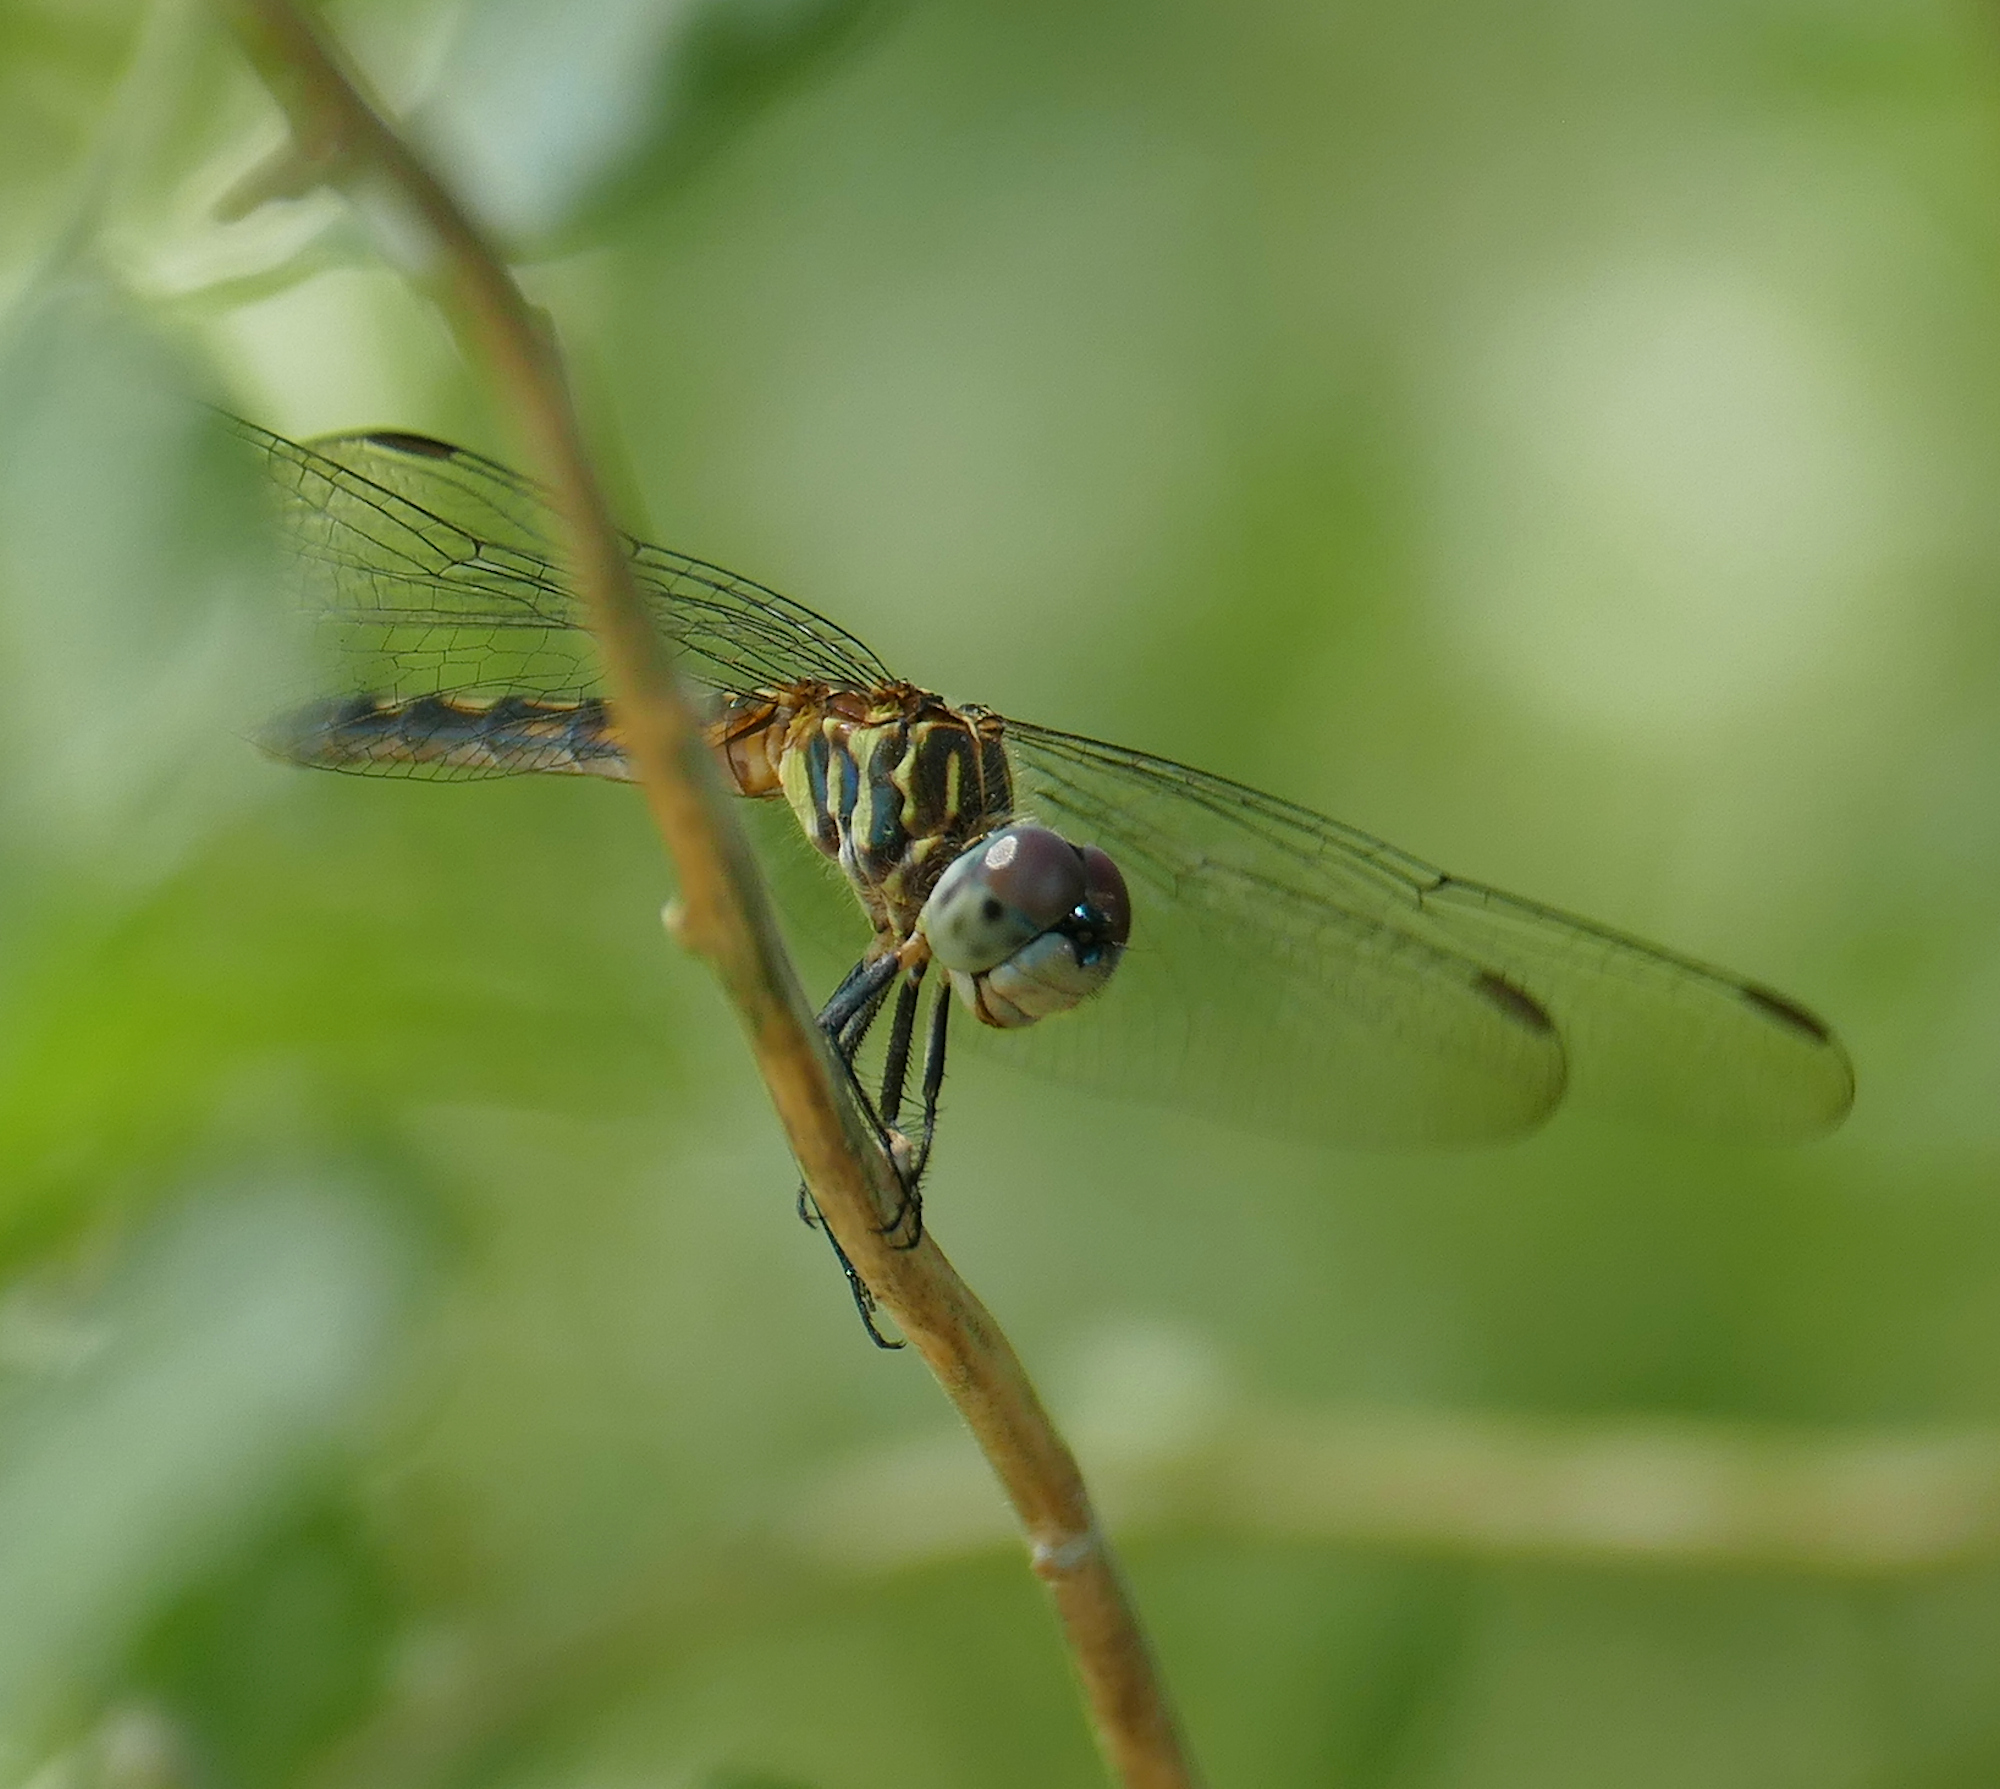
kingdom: Animalia
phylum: Arthropoda
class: Insecta
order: Odonata
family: Libellulidae
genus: Pachydiplax
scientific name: Pachydiplax longipennis
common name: Blue dasher
